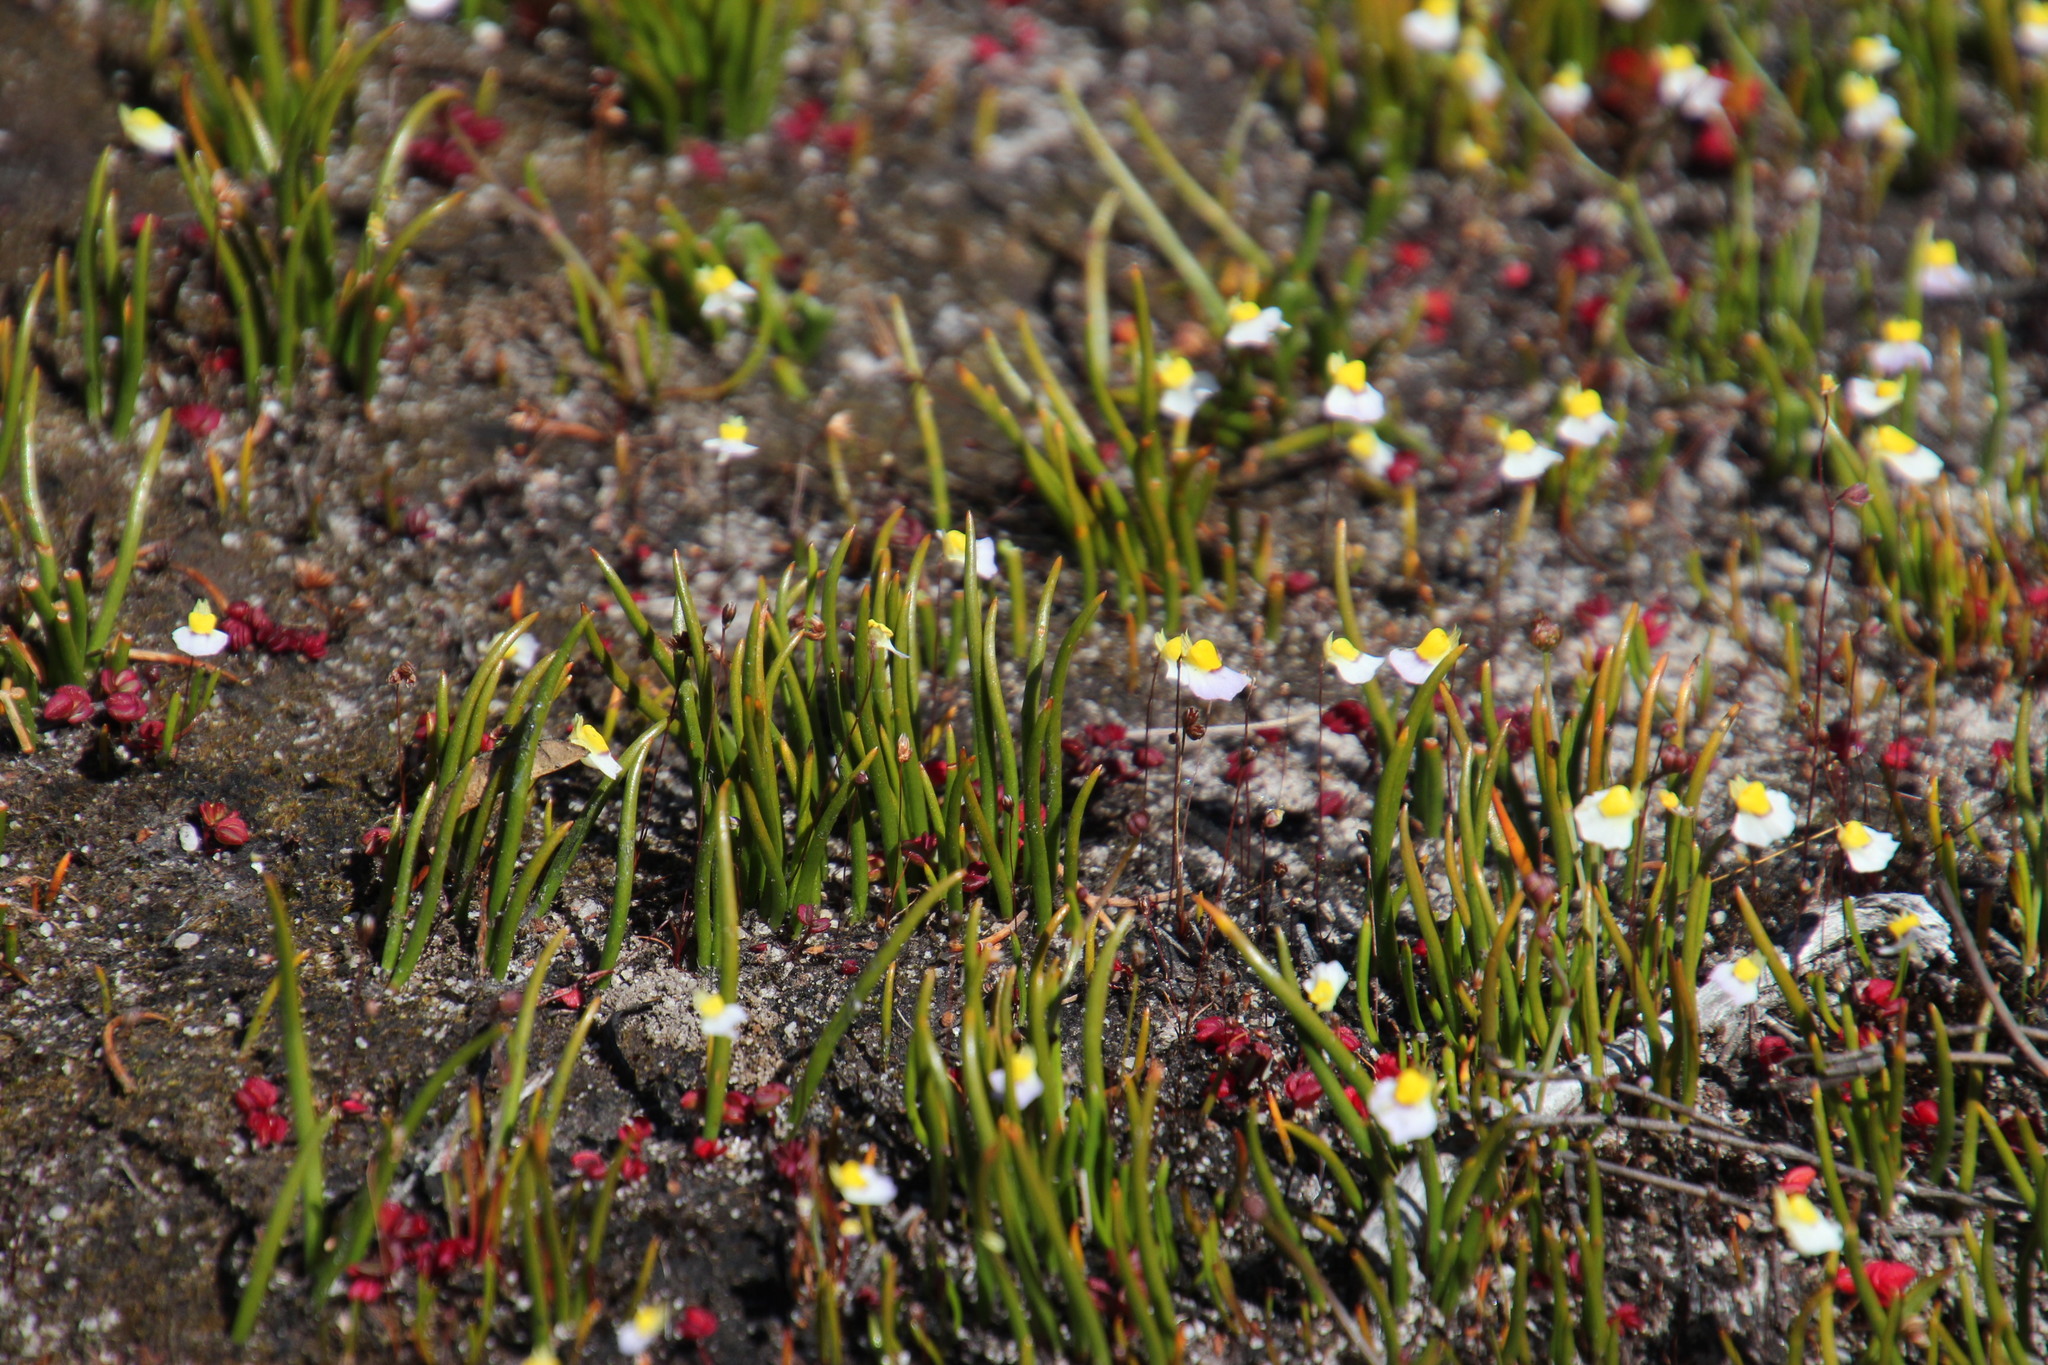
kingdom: Plantae
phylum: Tracheophyta
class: Magnoliopsida
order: Lamiales
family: Lentibulariaceae
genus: Utricularia
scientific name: Utricularia bisquamata
